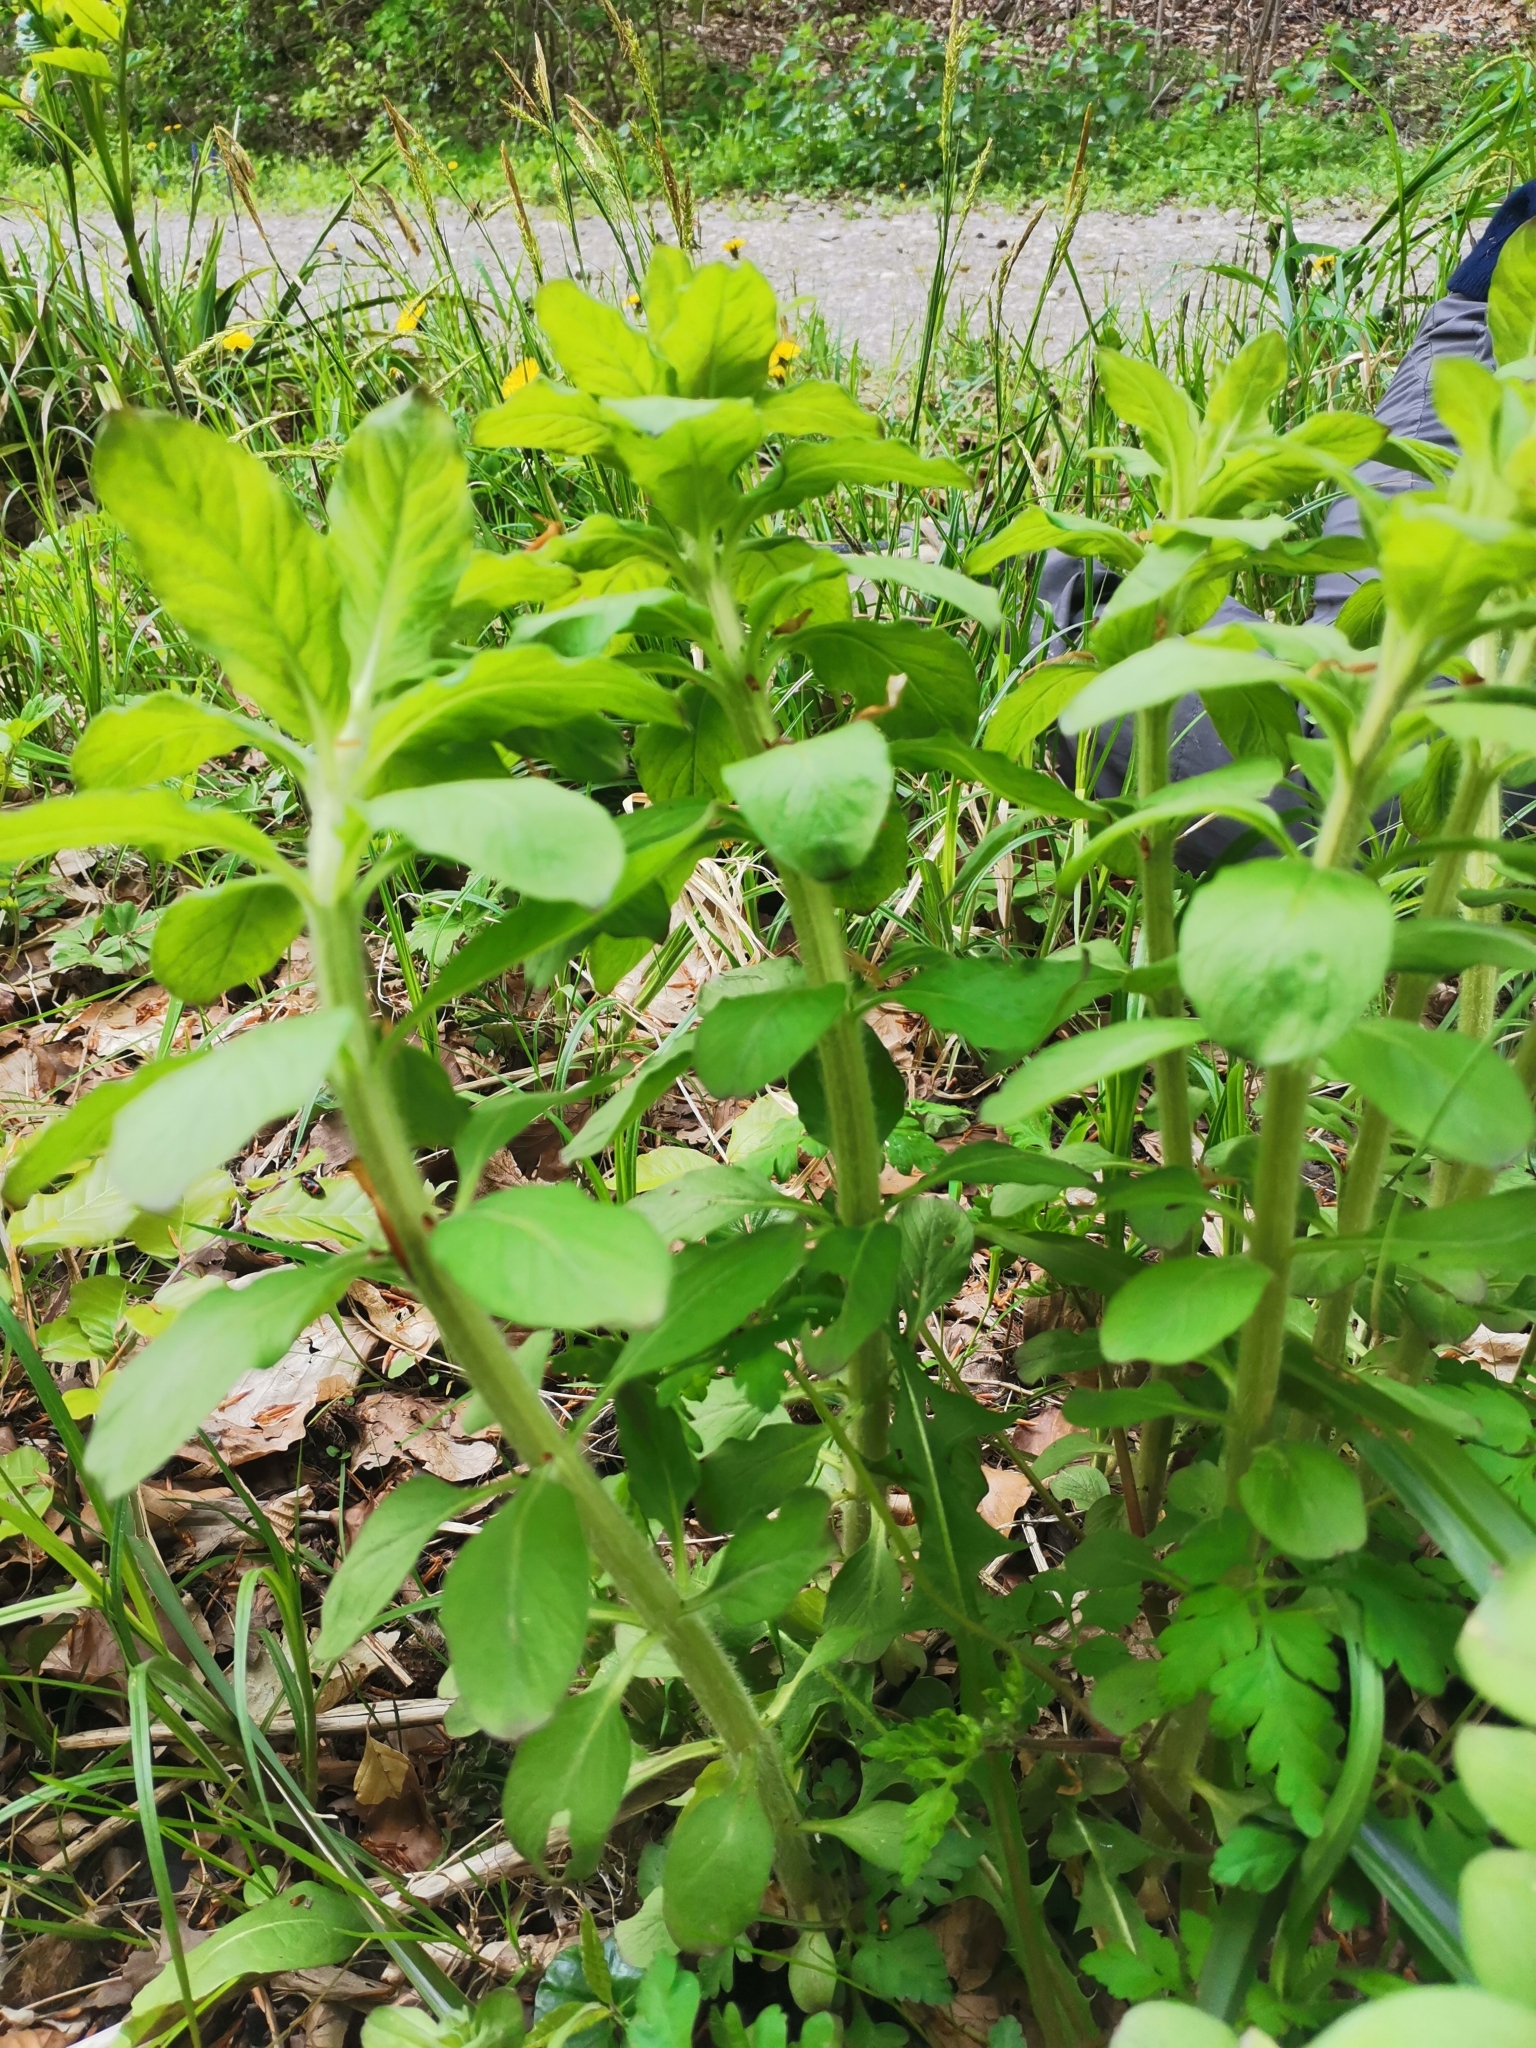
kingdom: Plantae
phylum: Tracheophyta
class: Magnoliopsida
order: Ericales
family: Primulaceae
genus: Lysimachia
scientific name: Lysimachia punctata
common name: Dotted loosestrife
